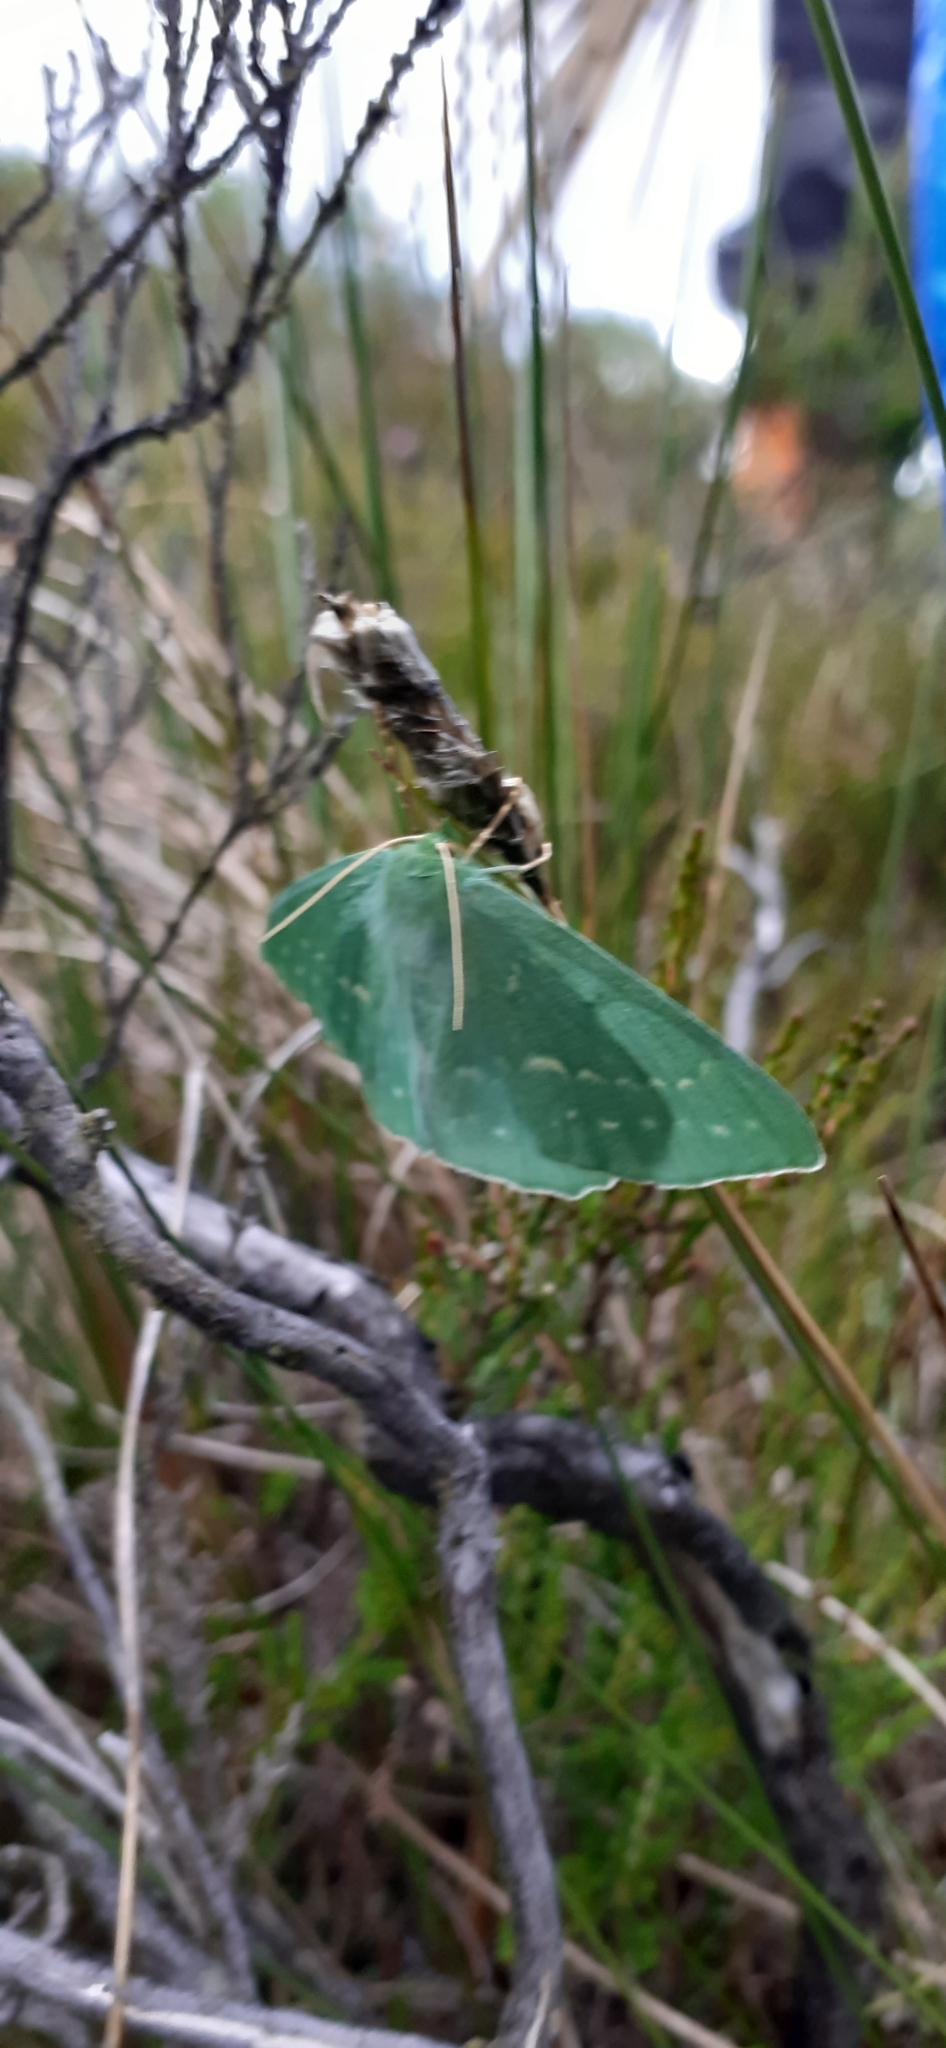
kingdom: Animalia
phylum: Arthropoda
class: Insecta
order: Lepidoptera
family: Geometridae
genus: Geometra
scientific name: Geometra papilionaria
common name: Large emerald
